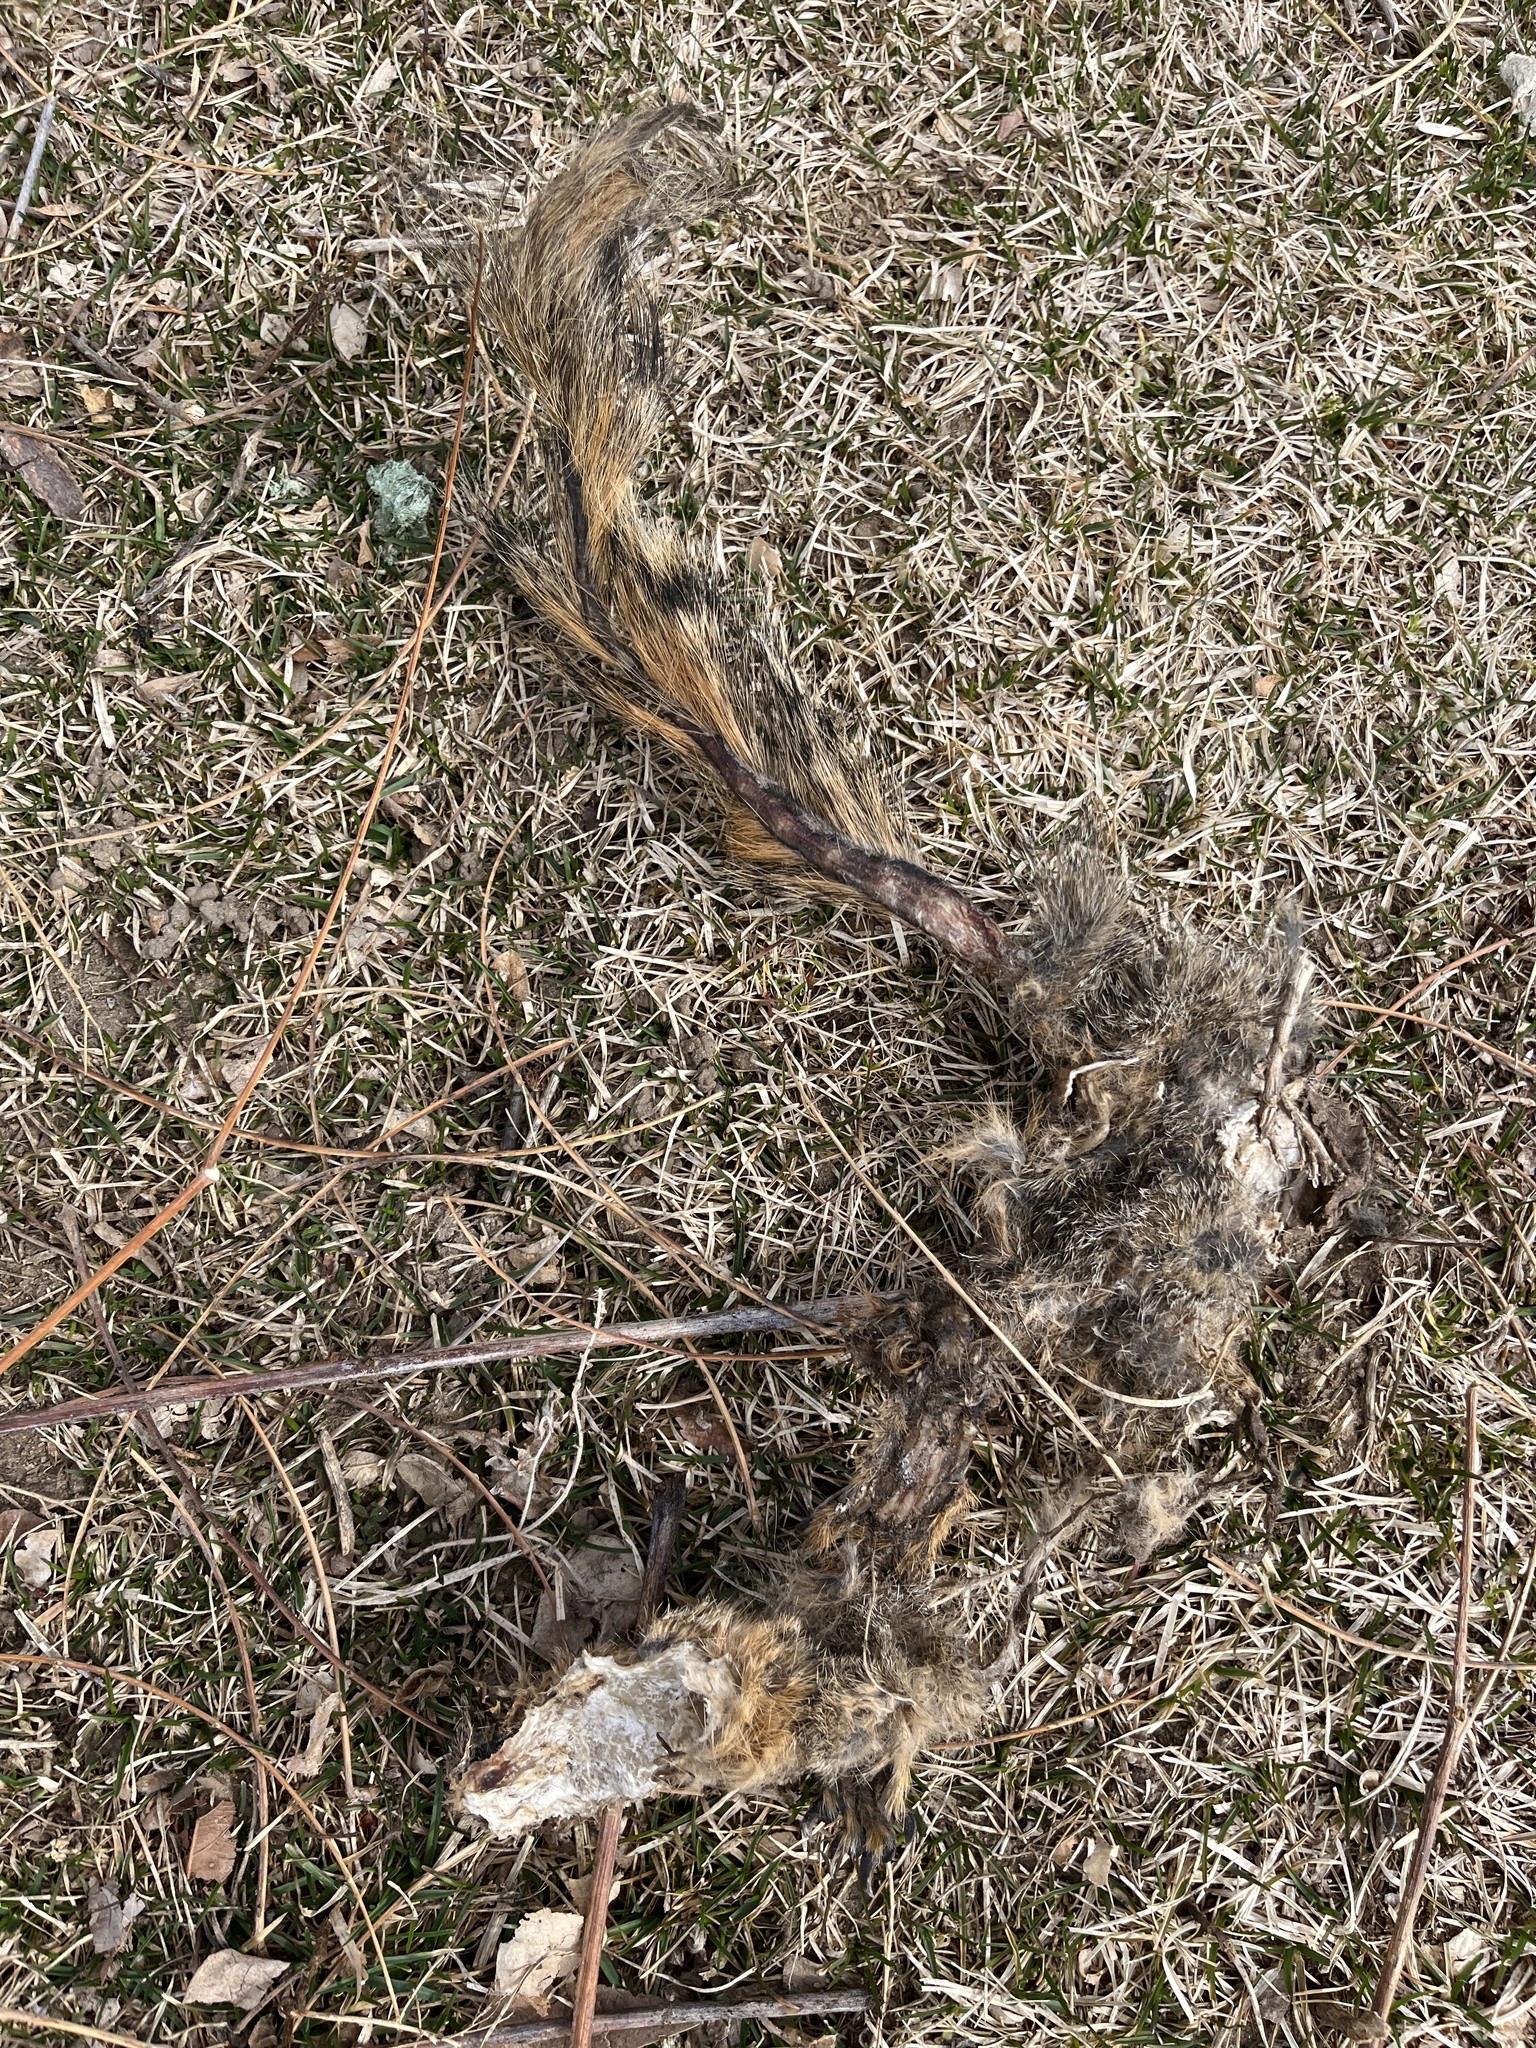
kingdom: Animalia
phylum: Chordata
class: Mammalia
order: Rodentia
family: Sciuridae
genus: Sciurus
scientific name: Sciurus niger
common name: Fox squirrel
